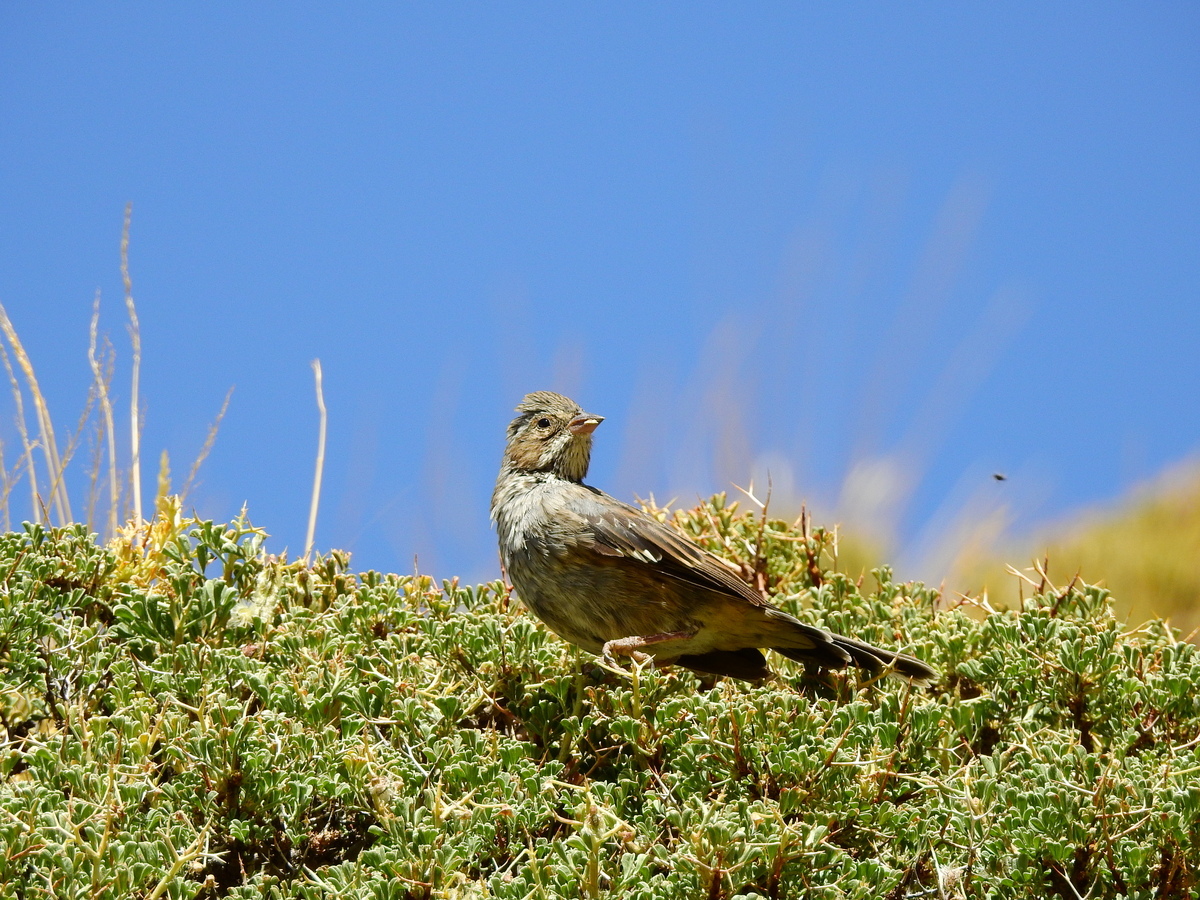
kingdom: Animalia
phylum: Chordata
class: Aves
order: Passeriformes
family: Thraupidae
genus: Rhopospina
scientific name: Rhopospina fruticeti
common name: Mourning sierra finch
